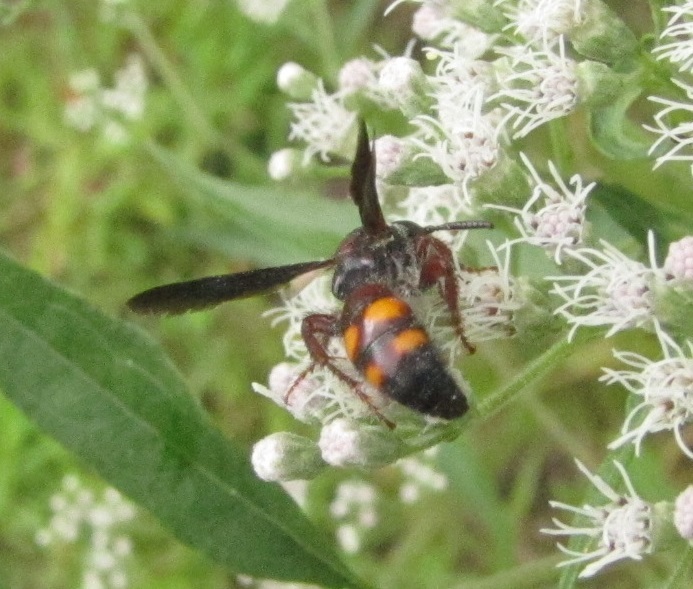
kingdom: Animalia
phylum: Arthropoda
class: Insecta
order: Hymenoptera
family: Scoliidae
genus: Scolia
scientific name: Scolia nobilitata
